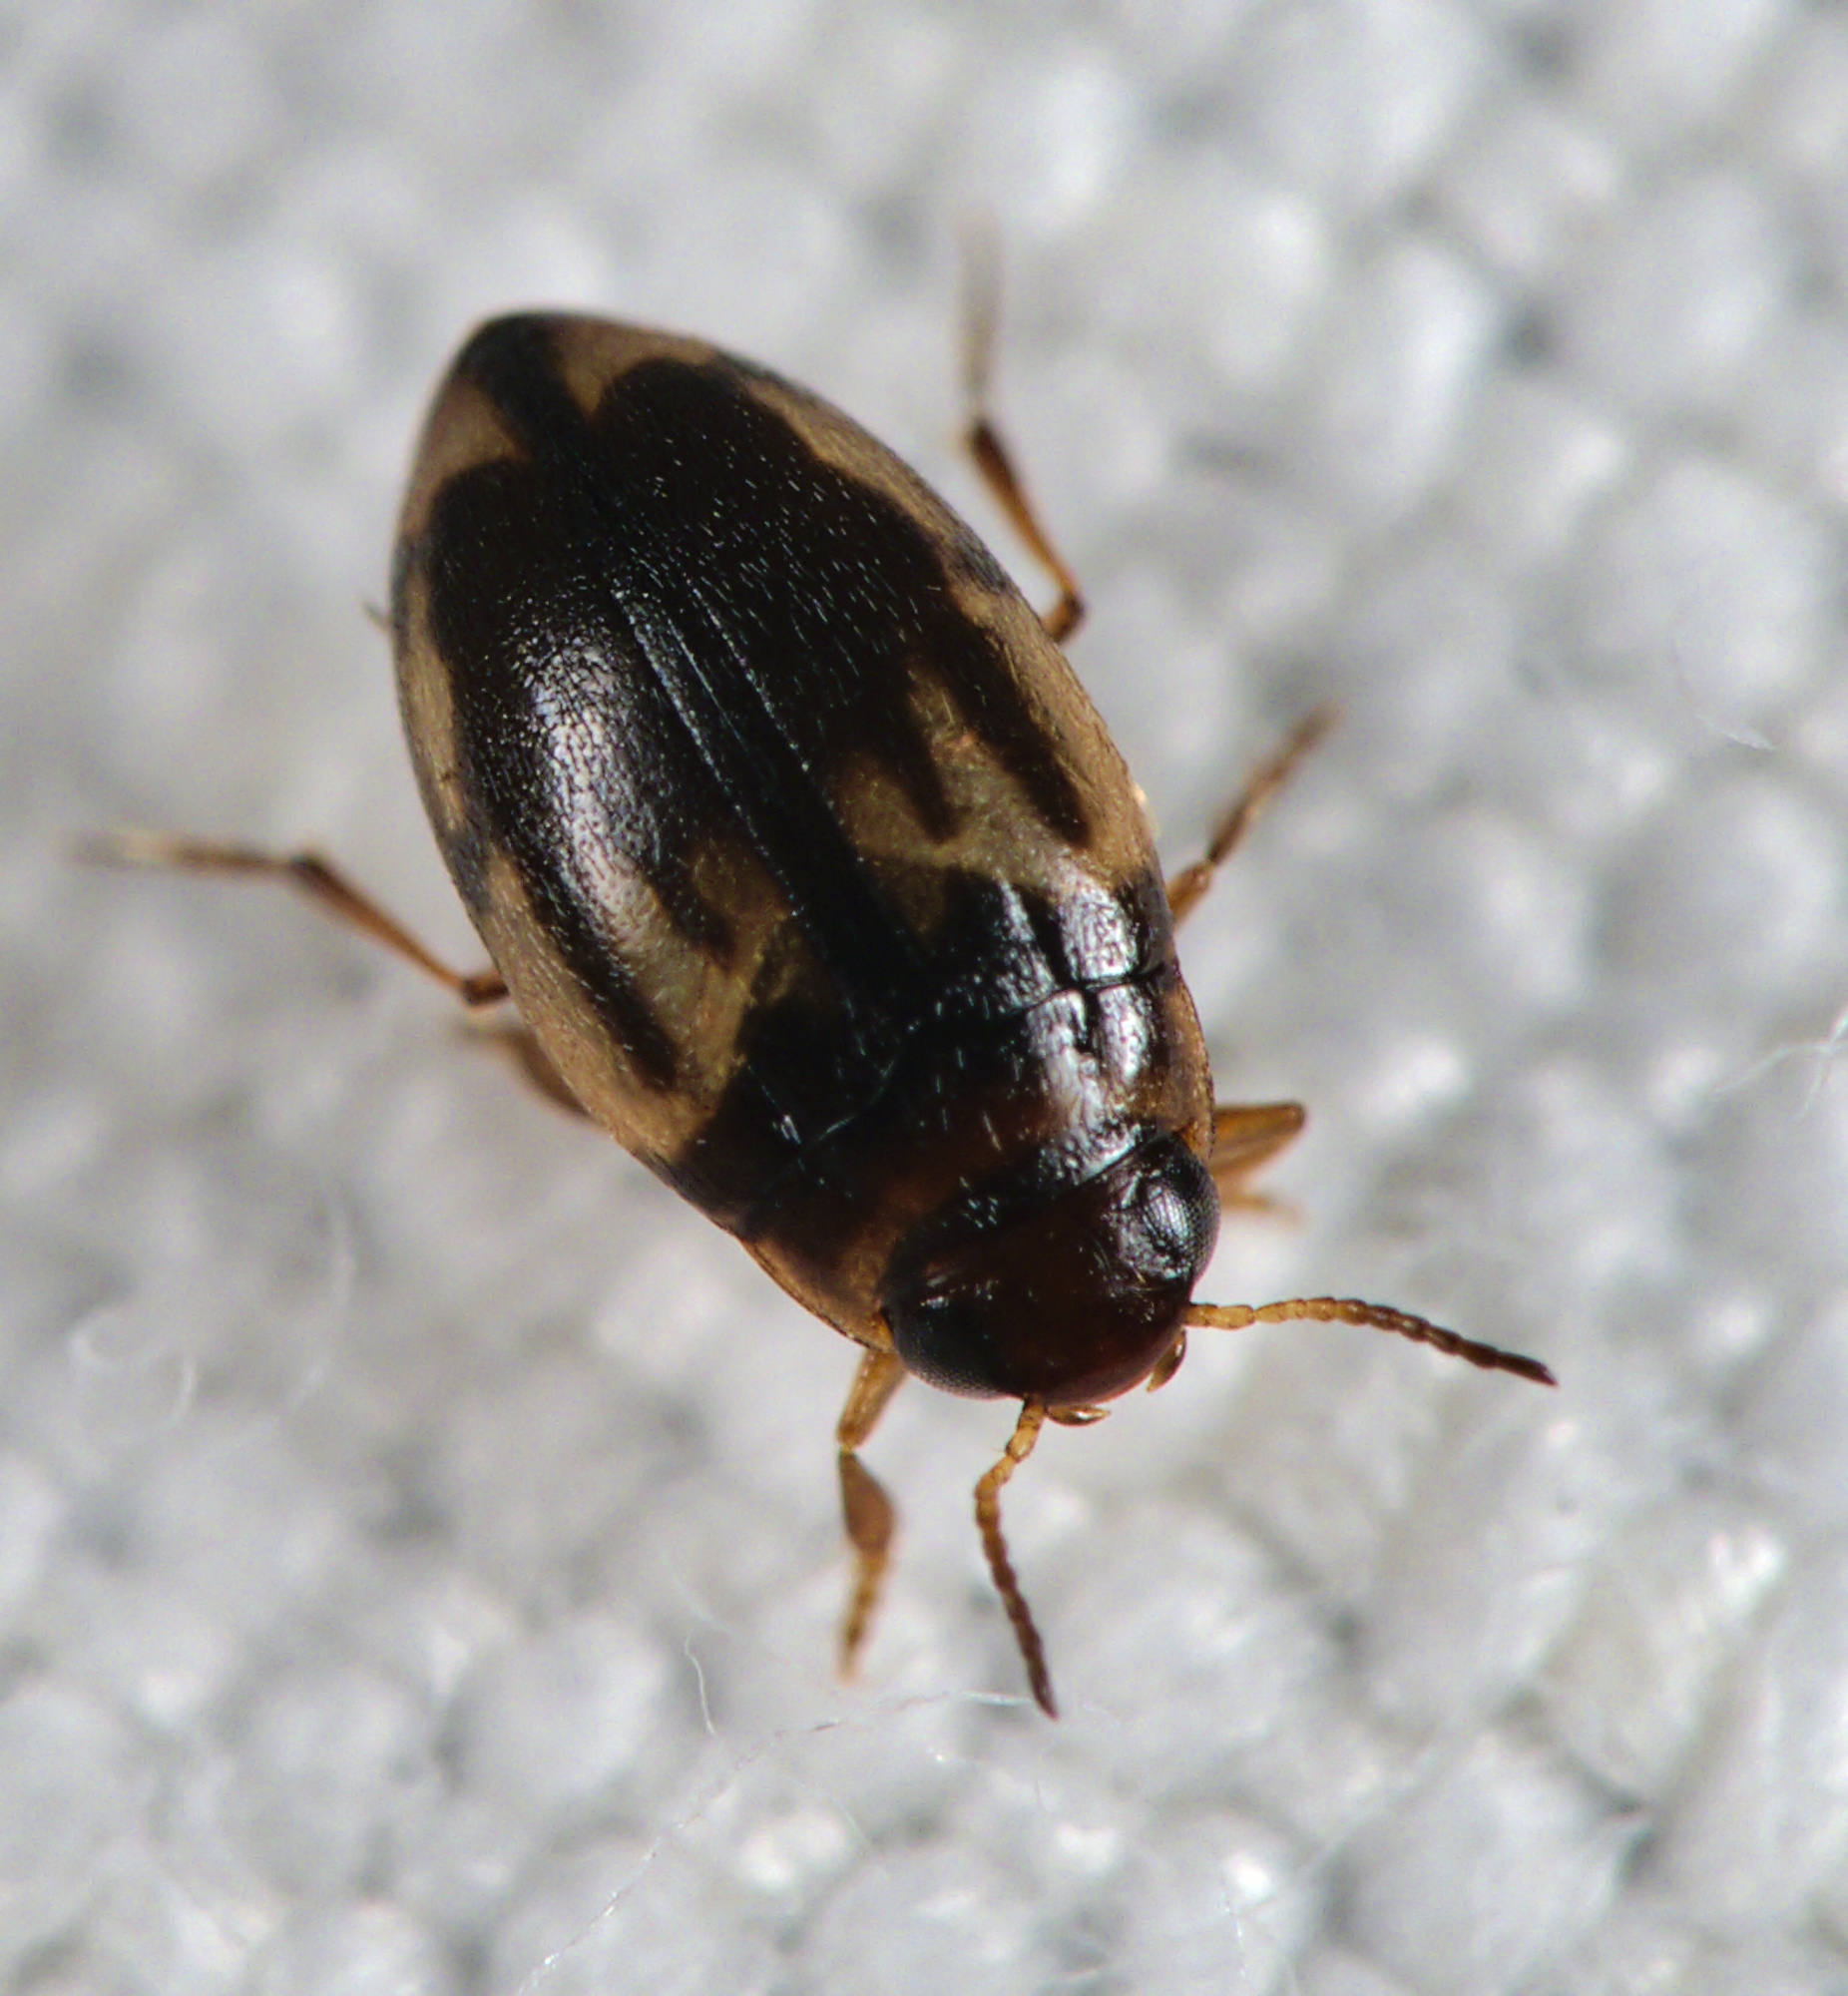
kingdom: Animalia
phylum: Arthropoda
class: Insecta
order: Coleoptera
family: Dytiscidae
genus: Hydroglyphus
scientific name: Hydroglyphus geminus
